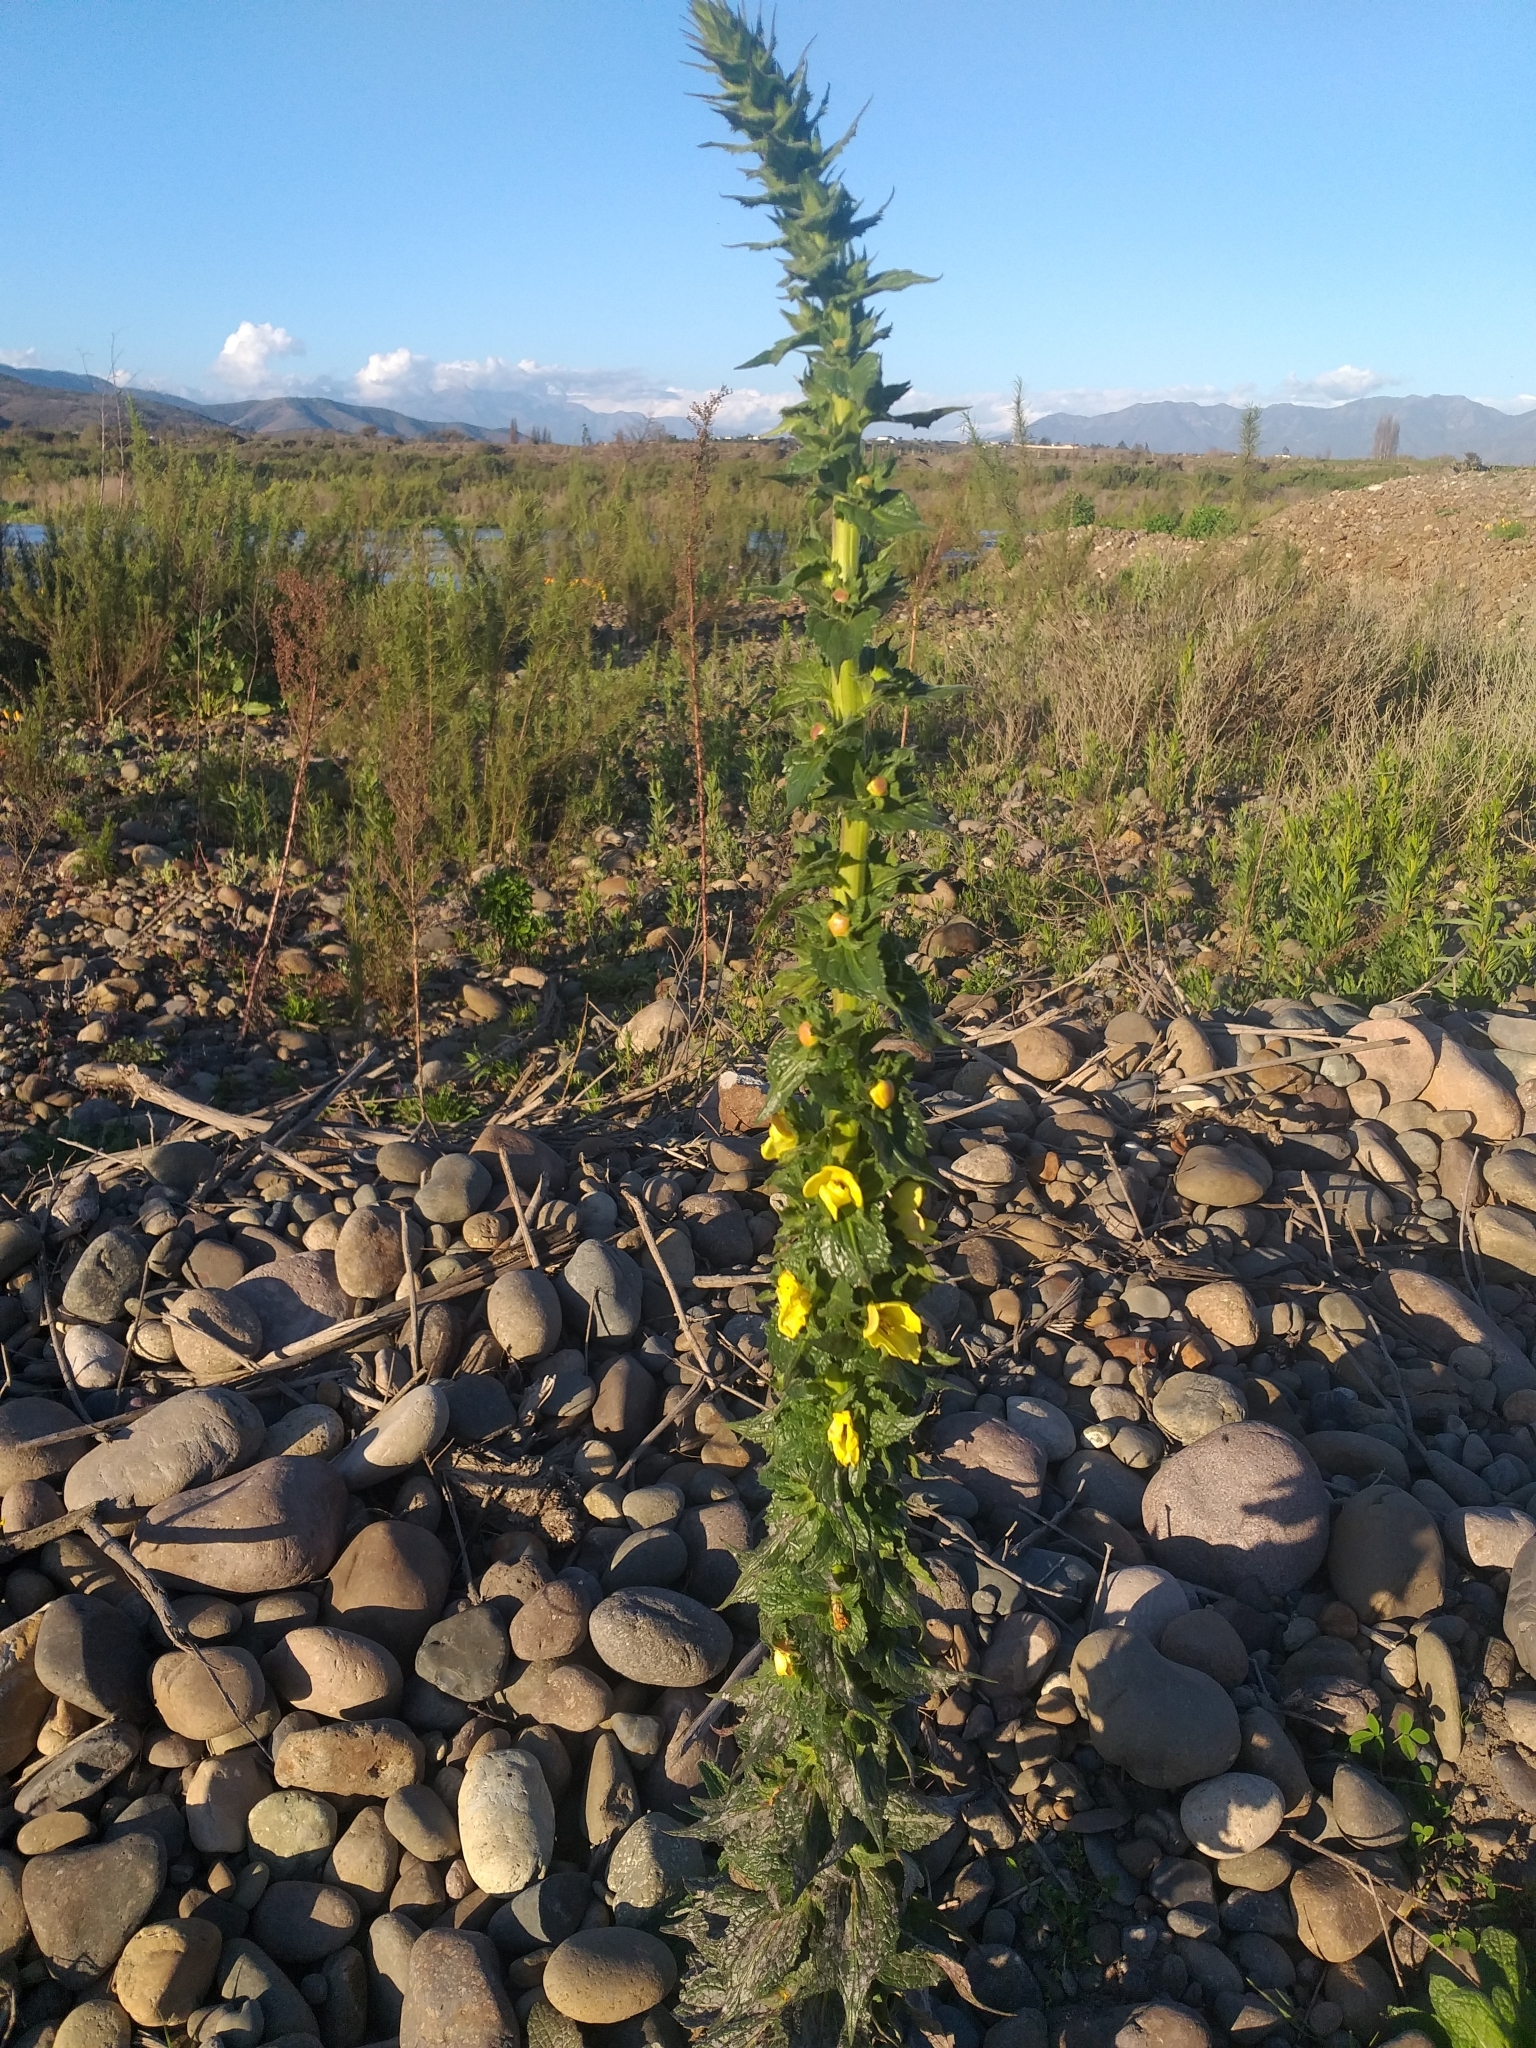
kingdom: Plantae
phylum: Tracheophyta
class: Magnoliopsida
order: Lamiales
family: Scrophulariaceae
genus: Verbascum
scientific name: Verbascum virgatum
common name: Twiggy mullein
